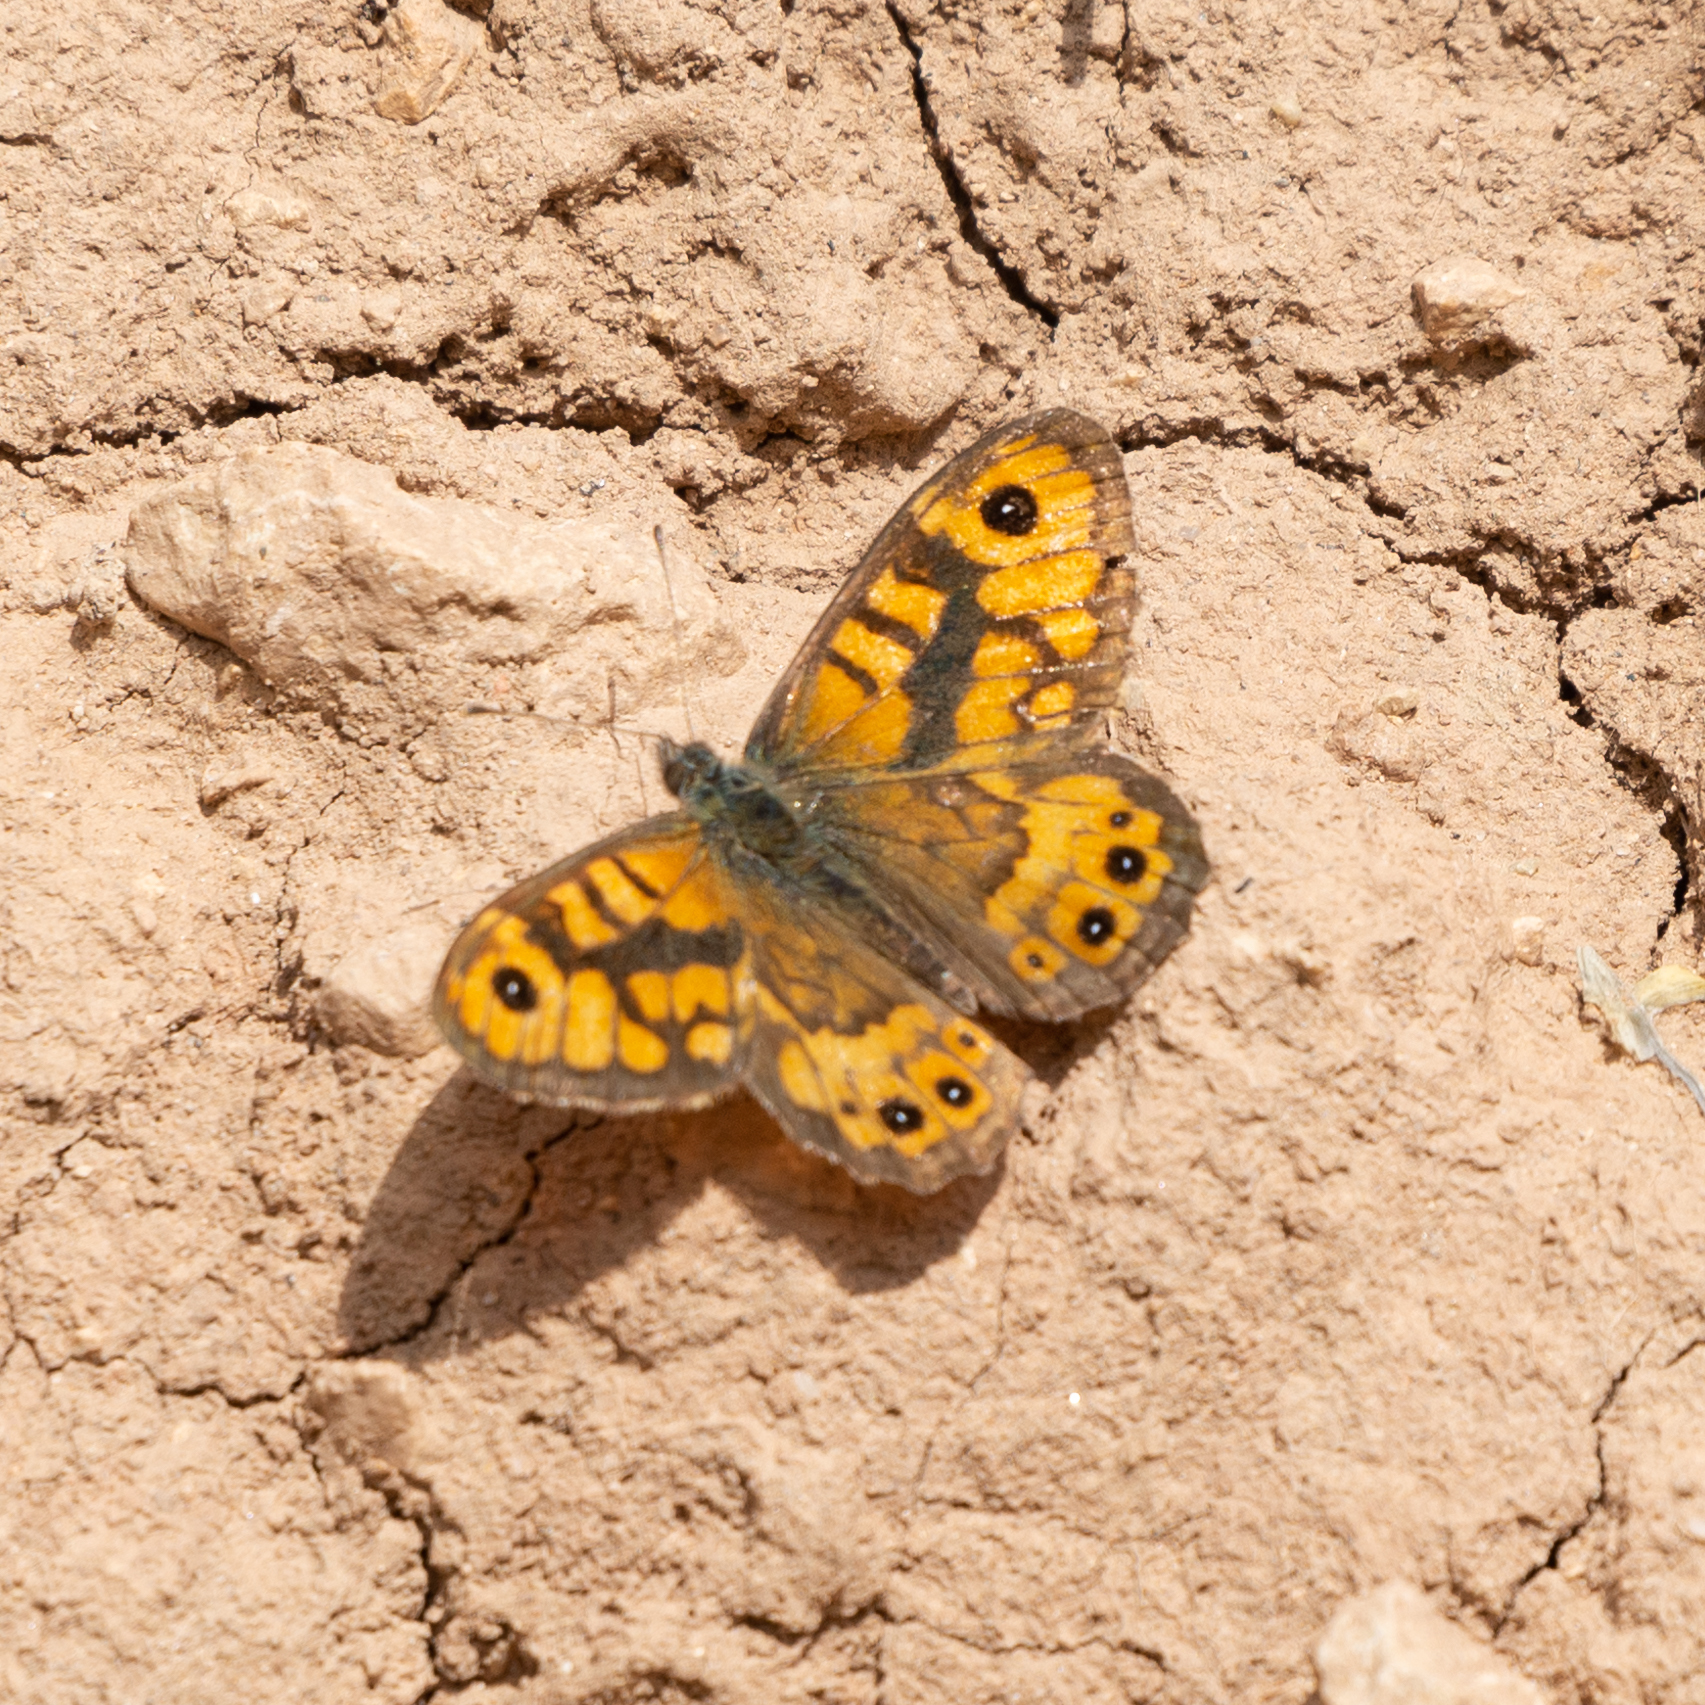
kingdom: Animalia
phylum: Arthropoda
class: Insecta
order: Lepidoptera
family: Nymphalidae
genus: Pararge
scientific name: Pararge Lasiommata megera
